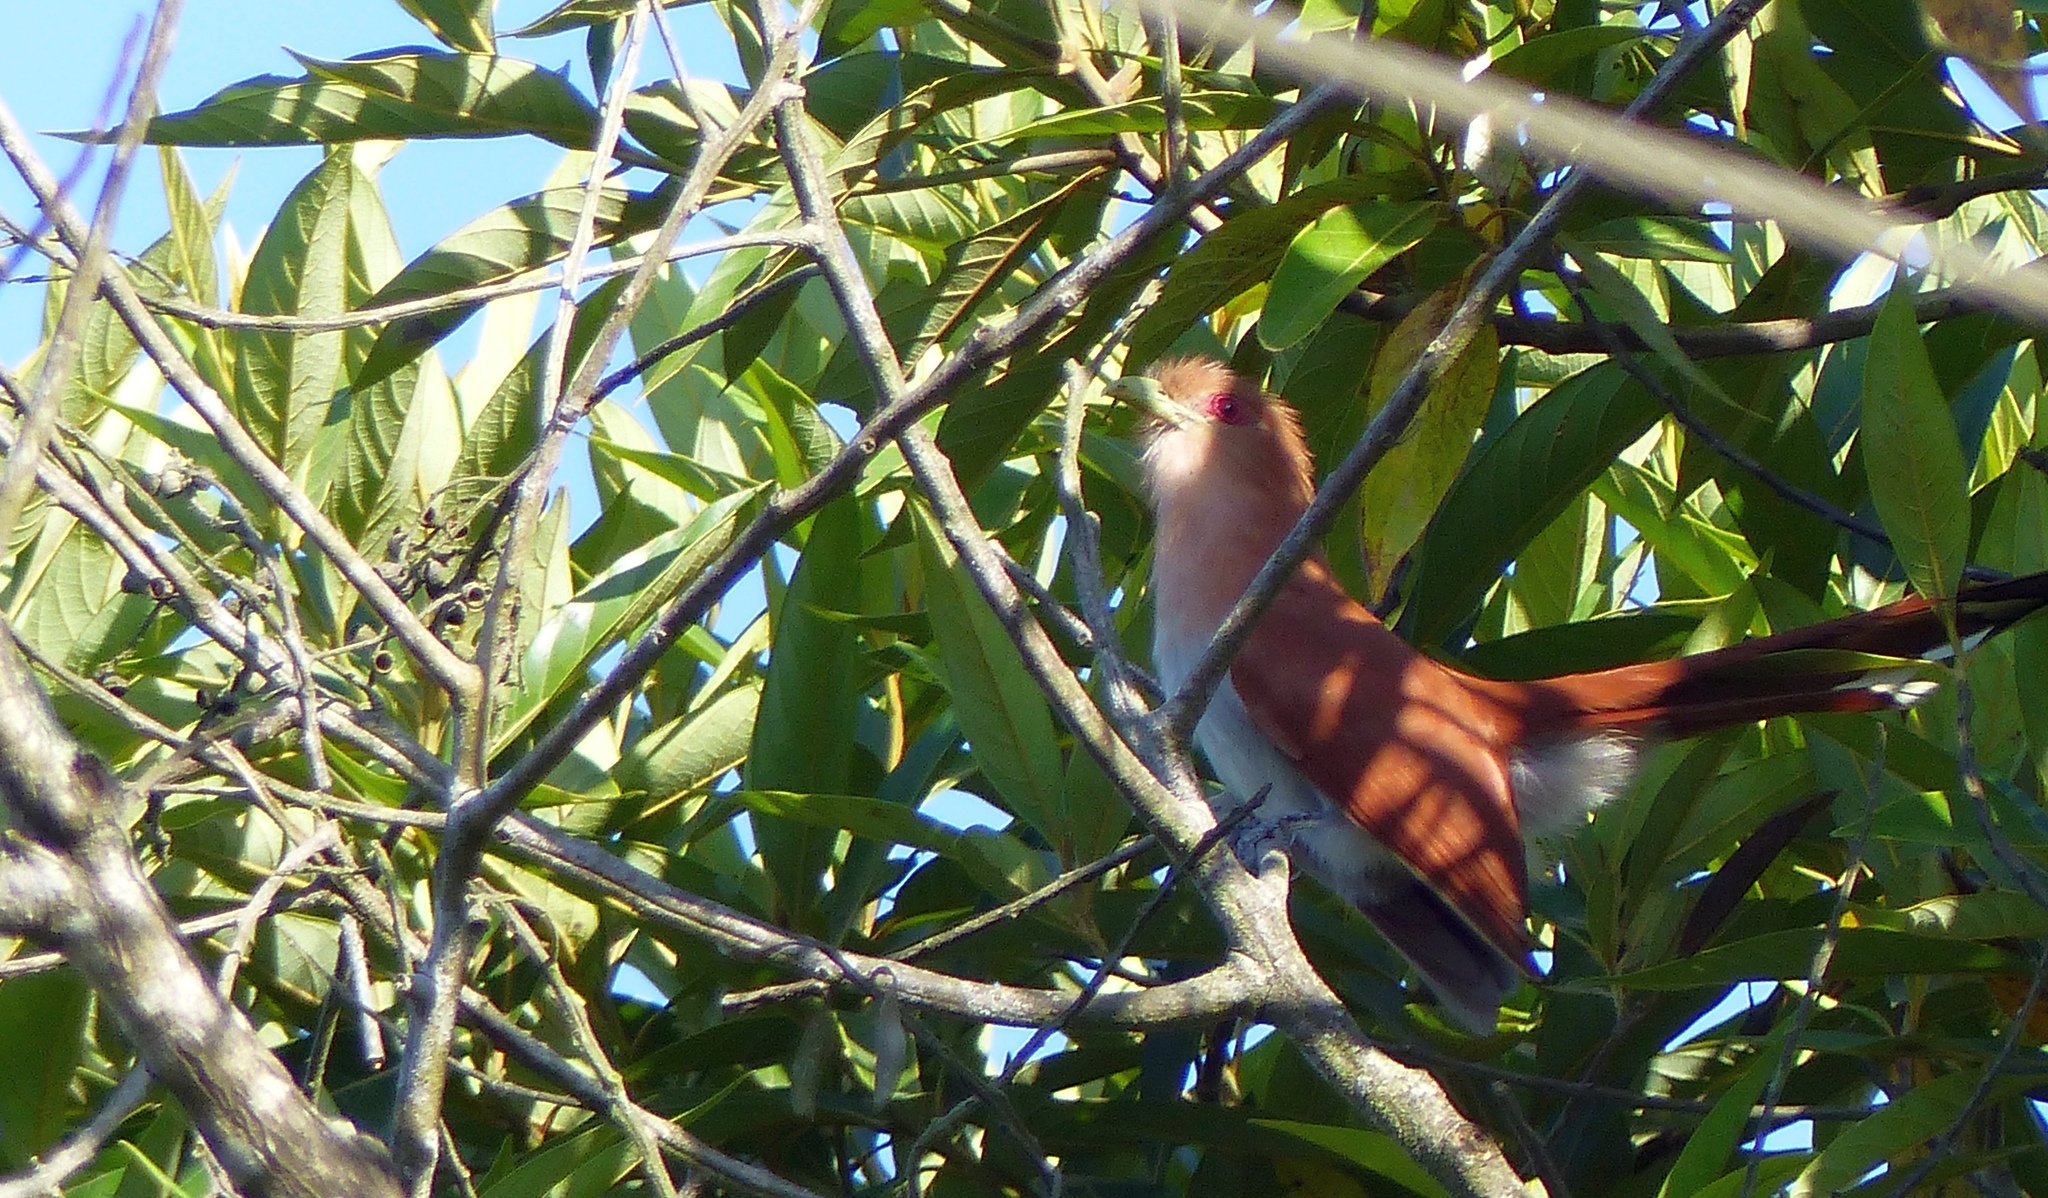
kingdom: Animalia
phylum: Chordata
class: Aves
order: Cuculiformes
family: Cuculidae
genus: Piaya
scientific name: Piaya cayana
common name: Squirrel cuckoo
